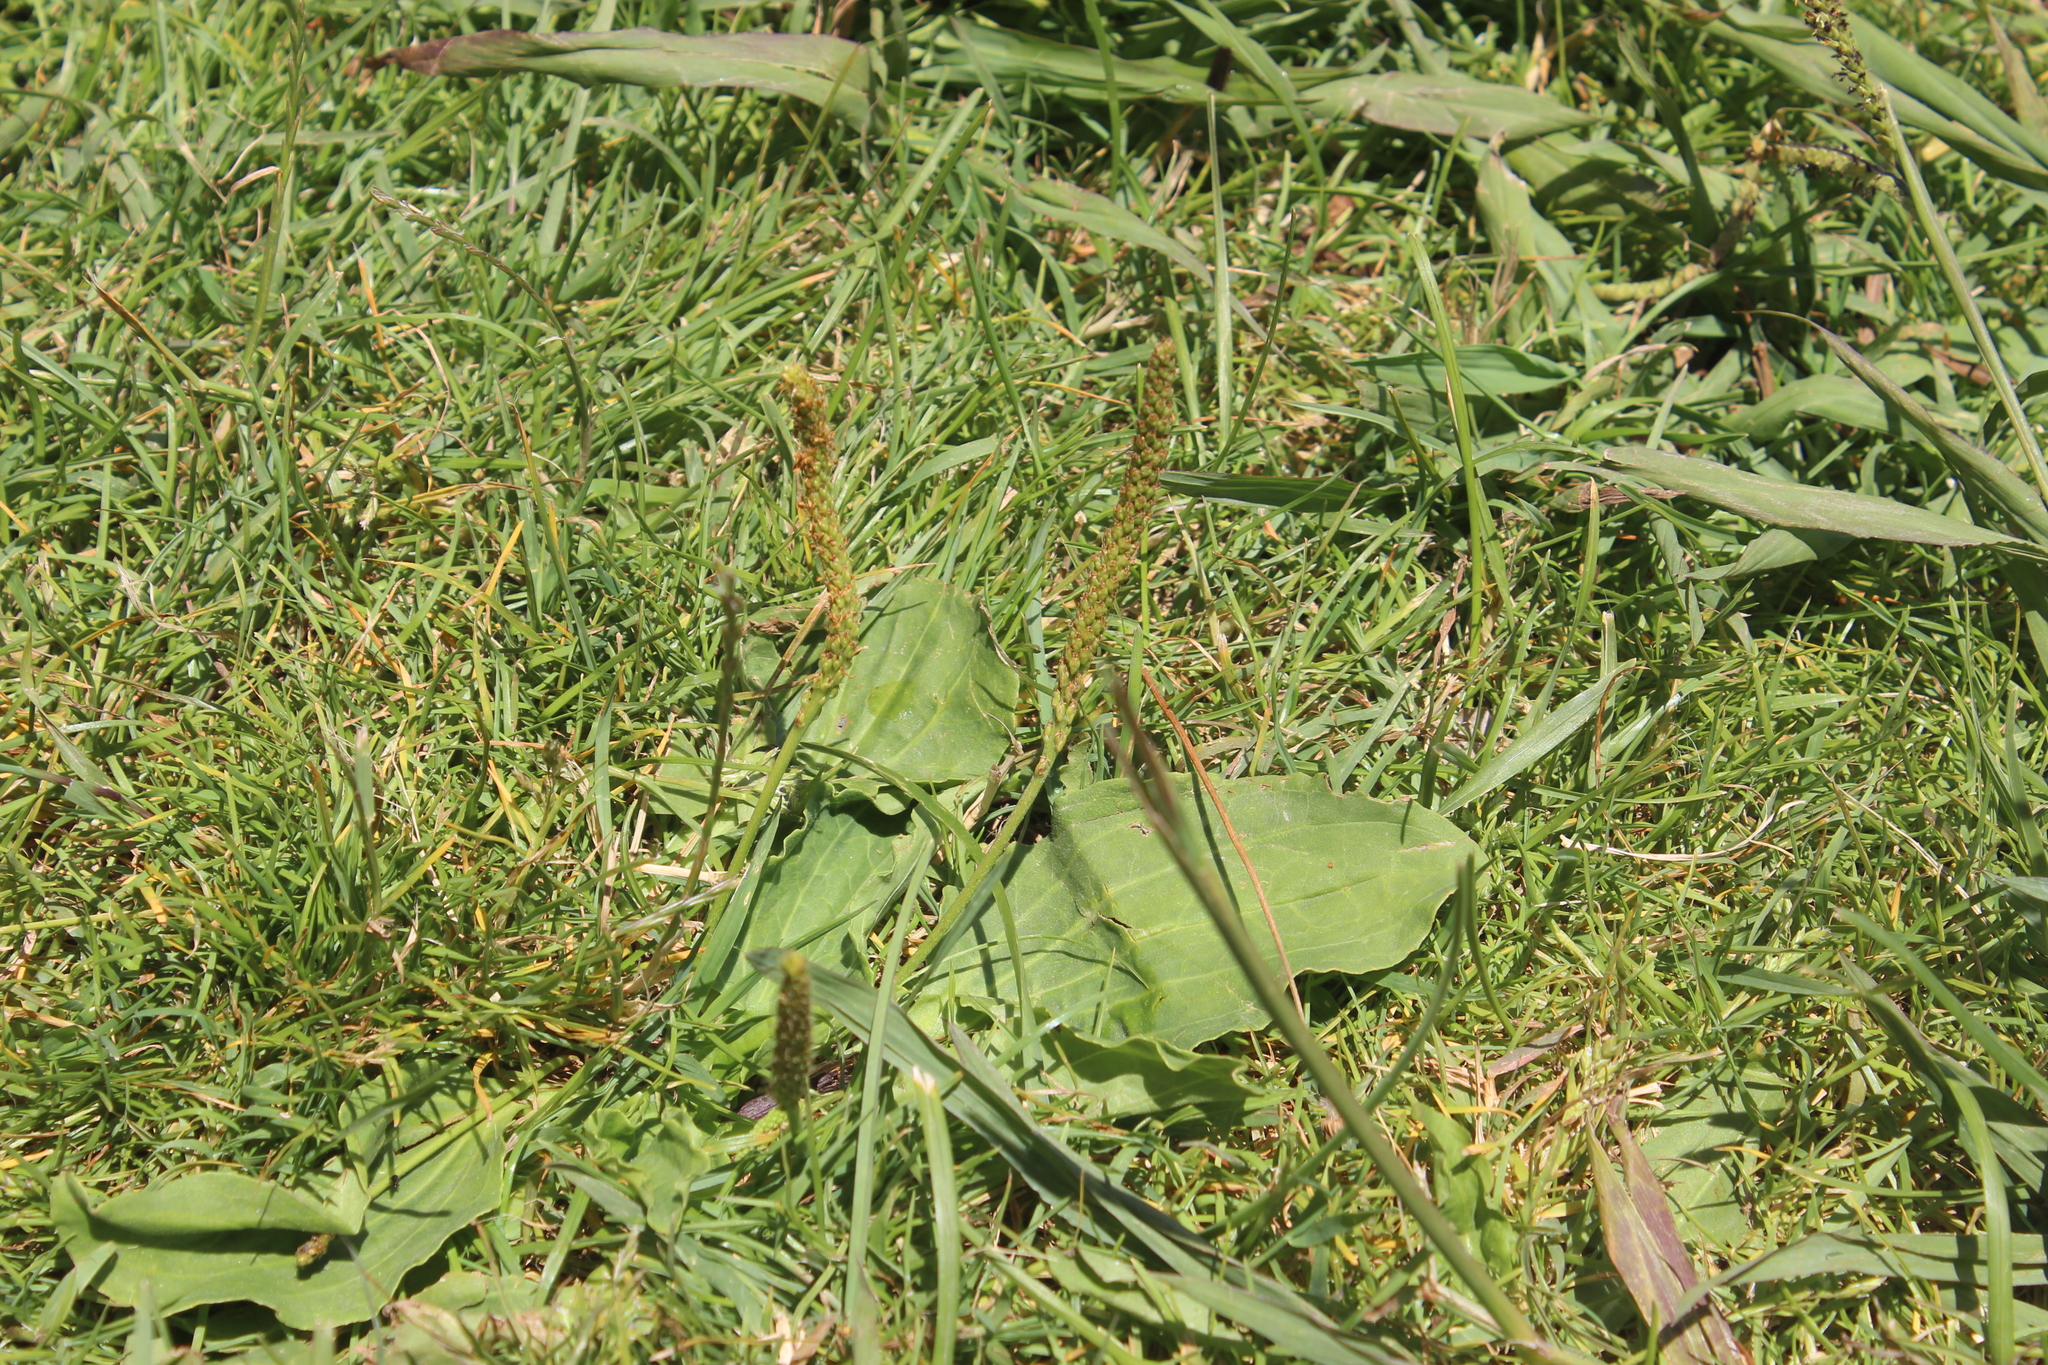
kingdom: Plantae
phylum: Tracheophyta
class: Magnoliopsida
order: Lamiales
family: Plantaginaceae
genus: Plantago
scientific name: Plantago major
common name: Common plantain
